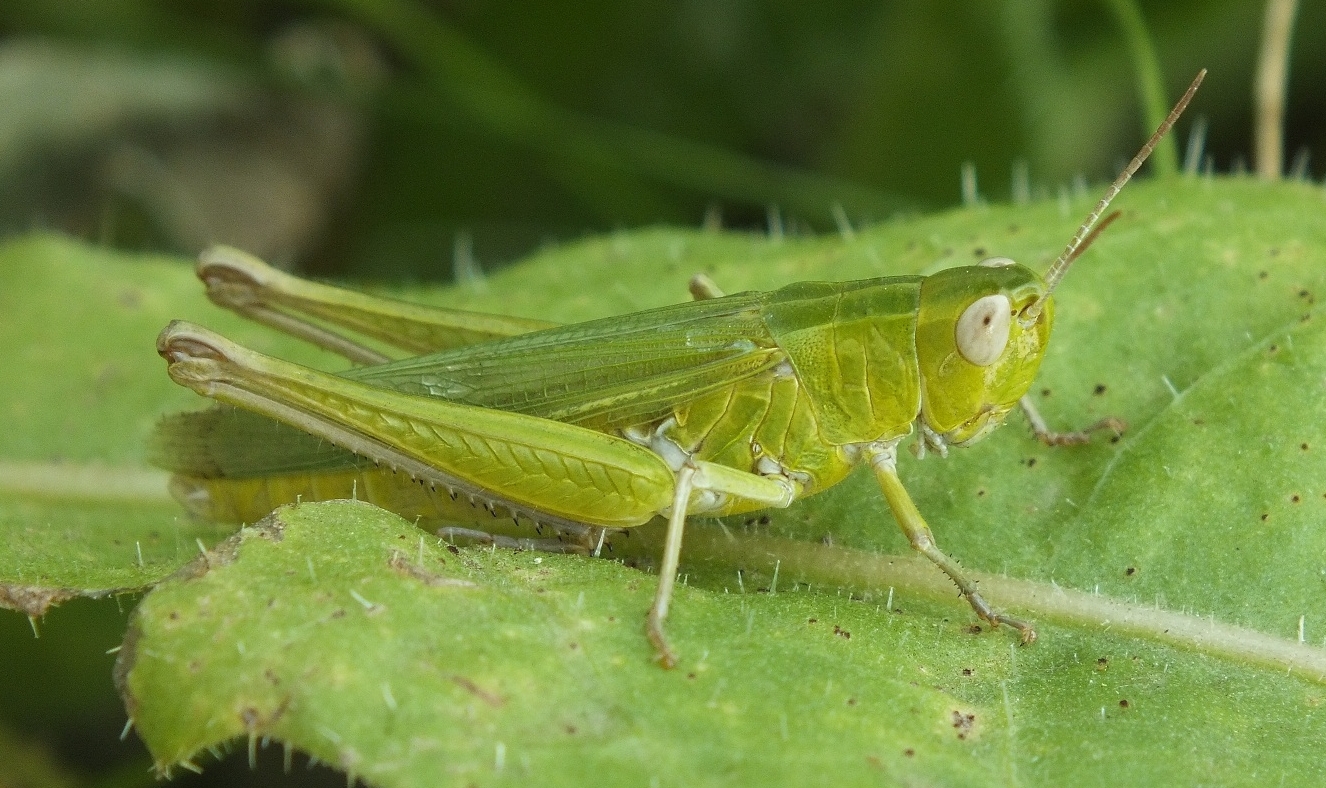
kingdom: Animalia
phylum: Arthropoda
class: Insecta
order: Orthoptera
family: Acrididae
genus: Chorthippus
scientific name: Chorthippus dichrous
